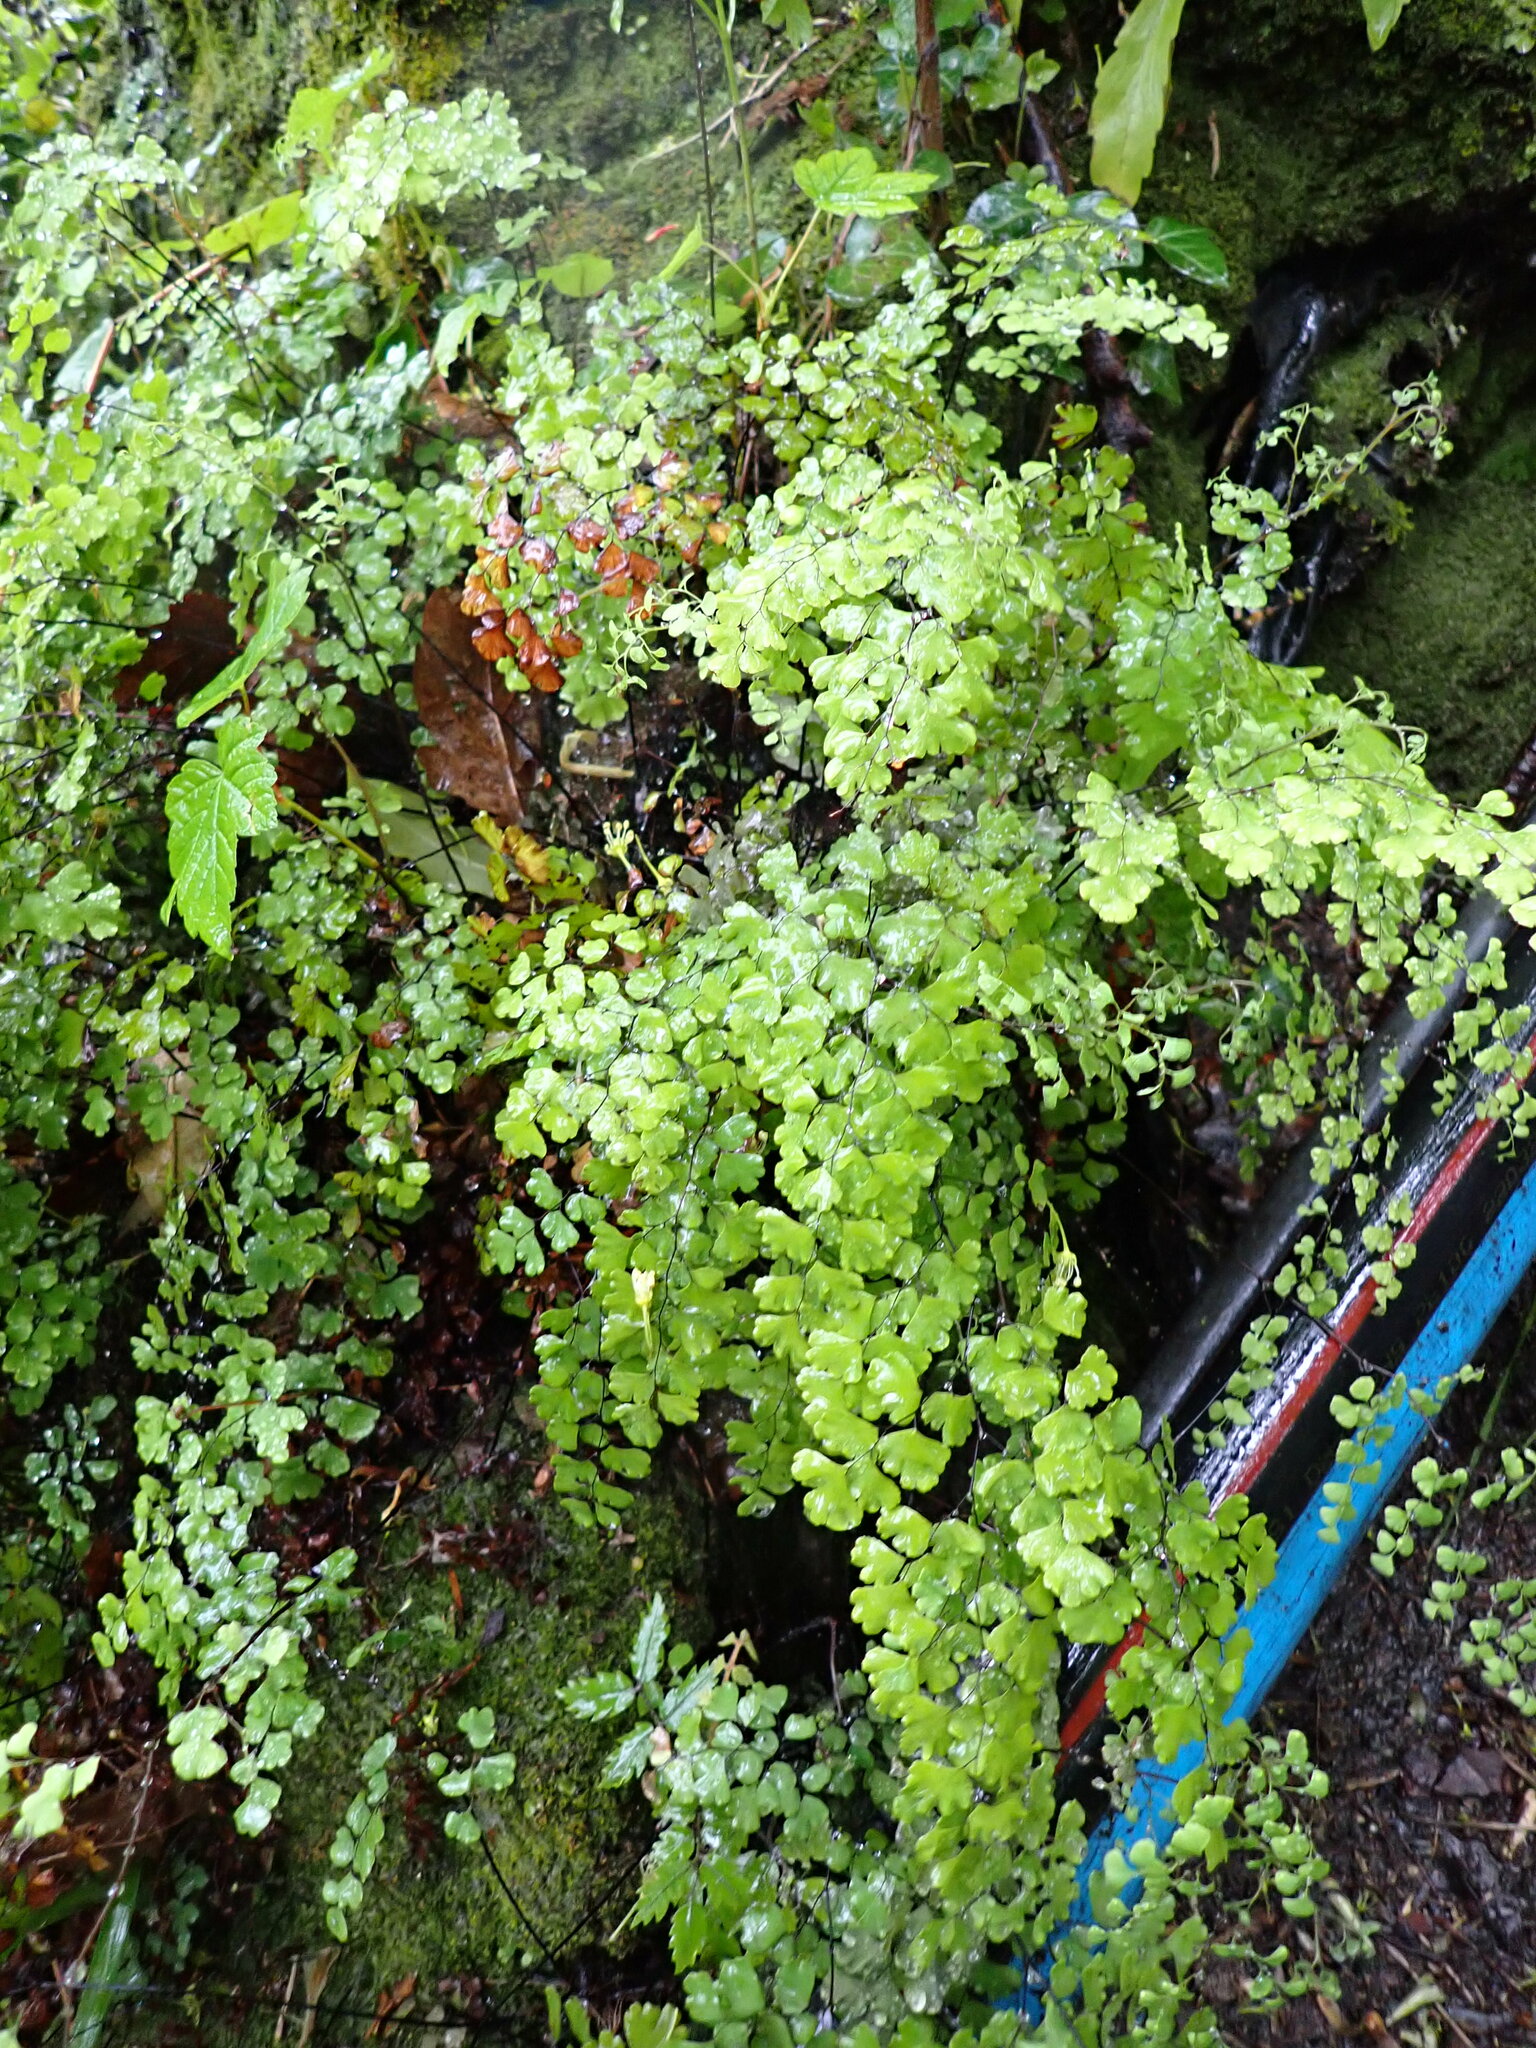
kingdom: Plantae
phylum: Tracheophyta
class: Polypodiopsida
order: Polypodiales
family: Pteridaceae
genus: Adiantum
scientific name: Adiantum capillus-veneris
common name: Maidenhair fern
